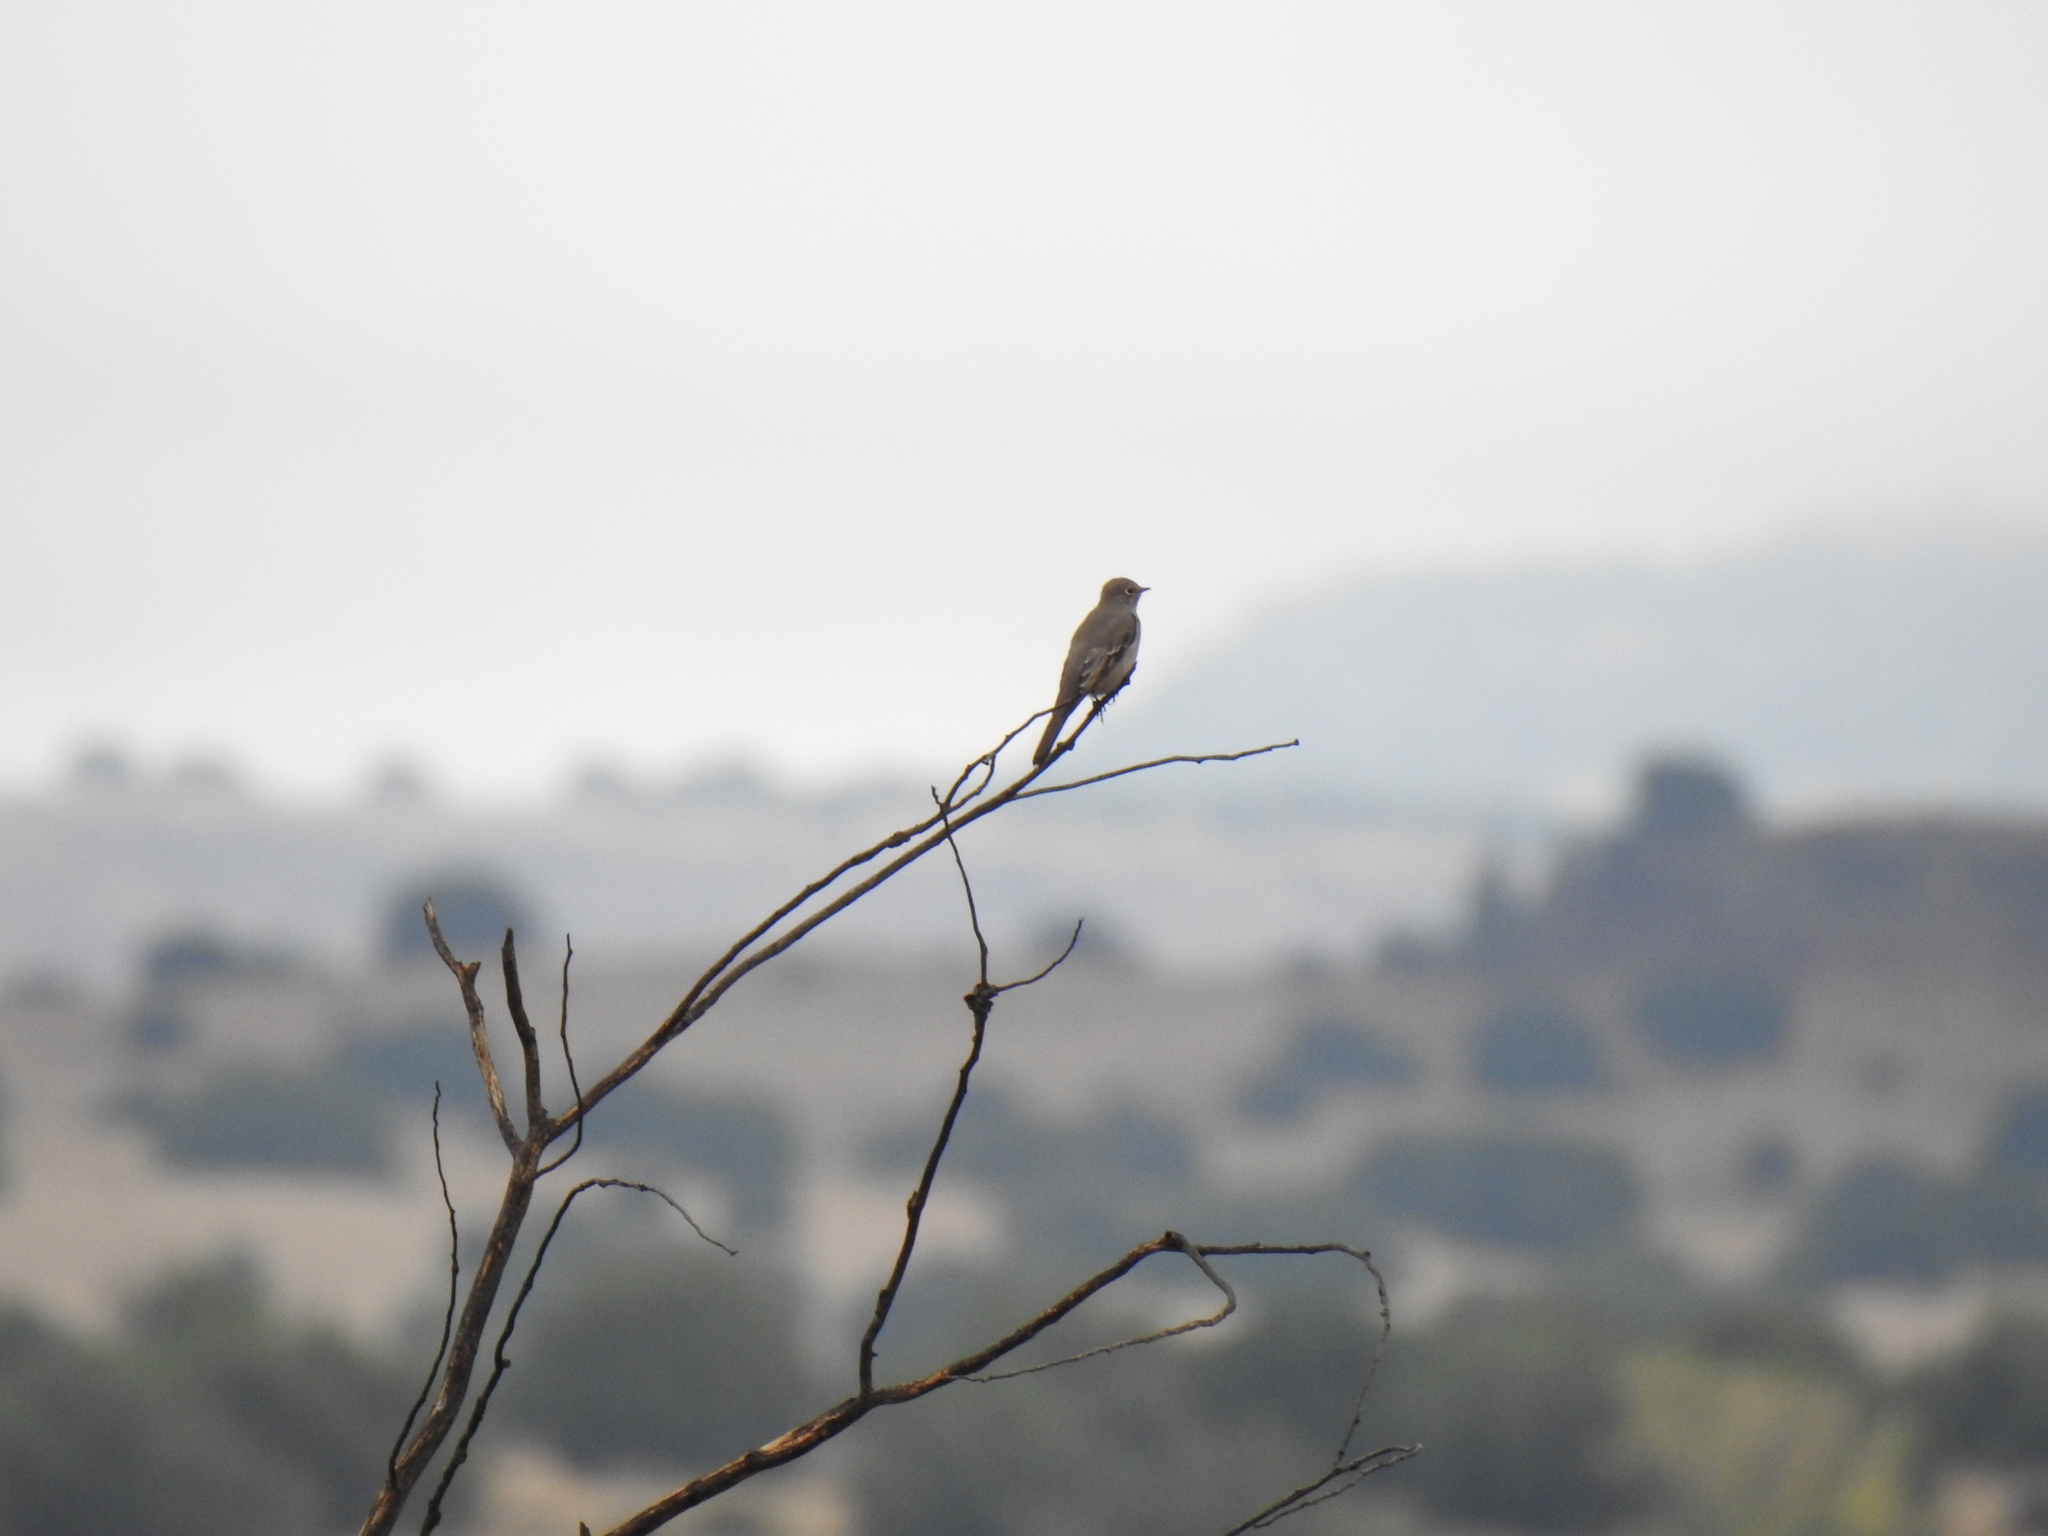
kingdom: Animalia
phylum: Chordata
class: Aves
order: Passeriformes
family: Turdidae
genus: Myadestes
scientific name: Myadestes townsendi
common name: Townsend's solitaire
